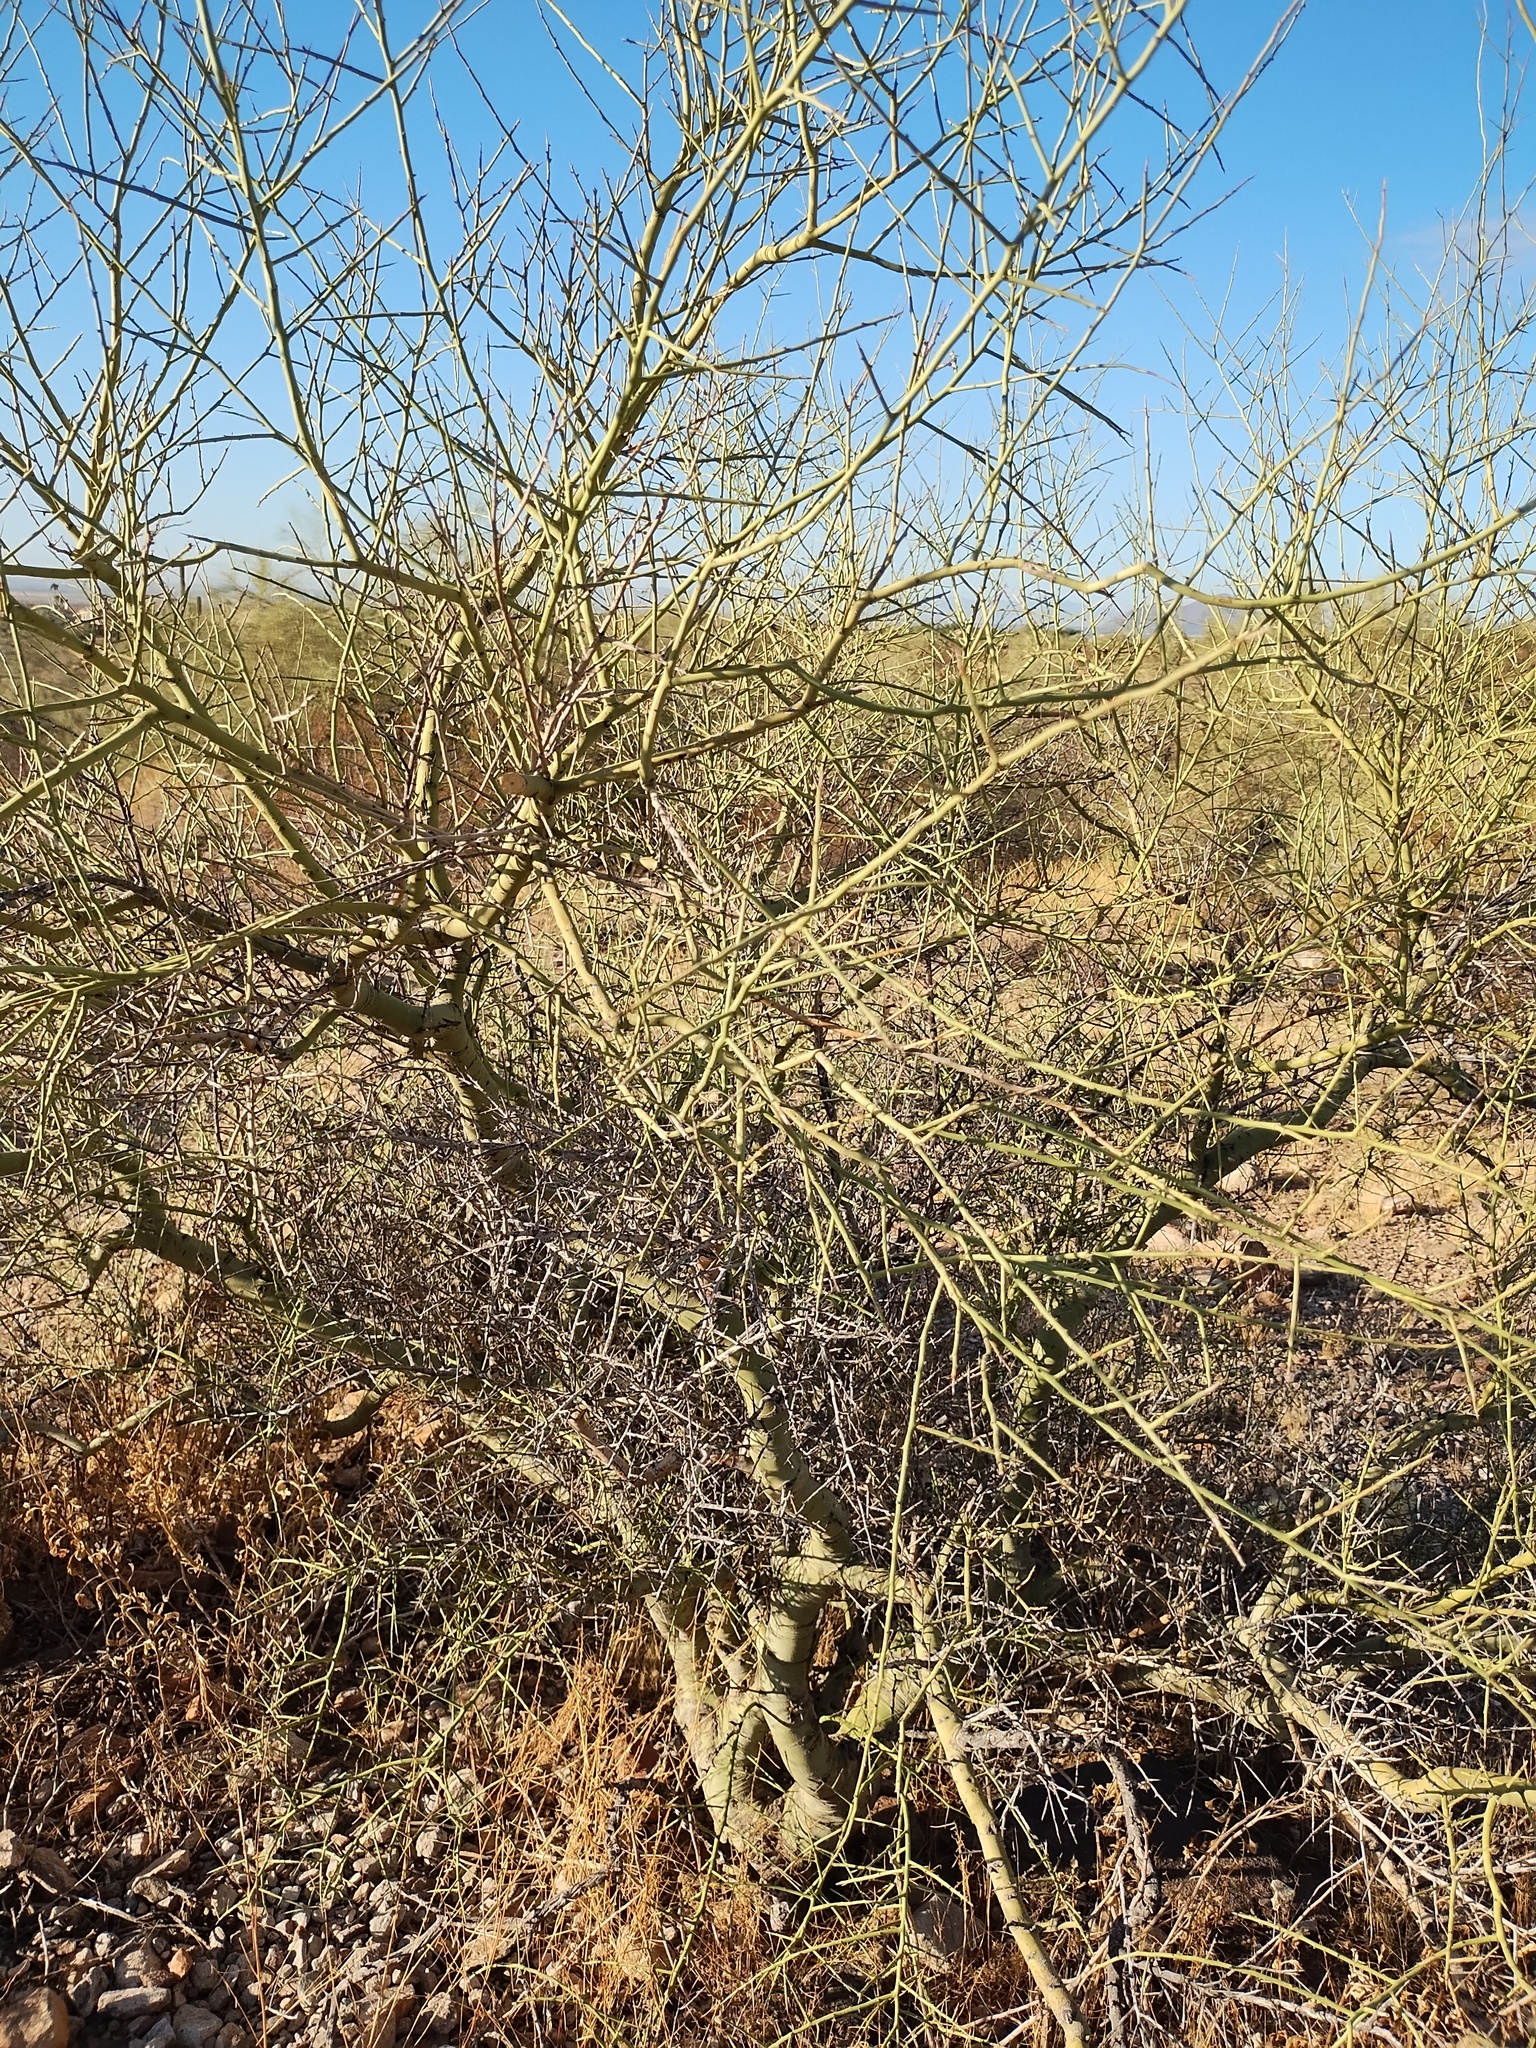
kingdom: Plantae
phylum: Tracheophyta
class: Magnoliopsida
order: Fabales
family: Fabaceae
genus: Parkinsonia
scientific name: Parkinsonia microphylla
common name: Yellow paloverde
